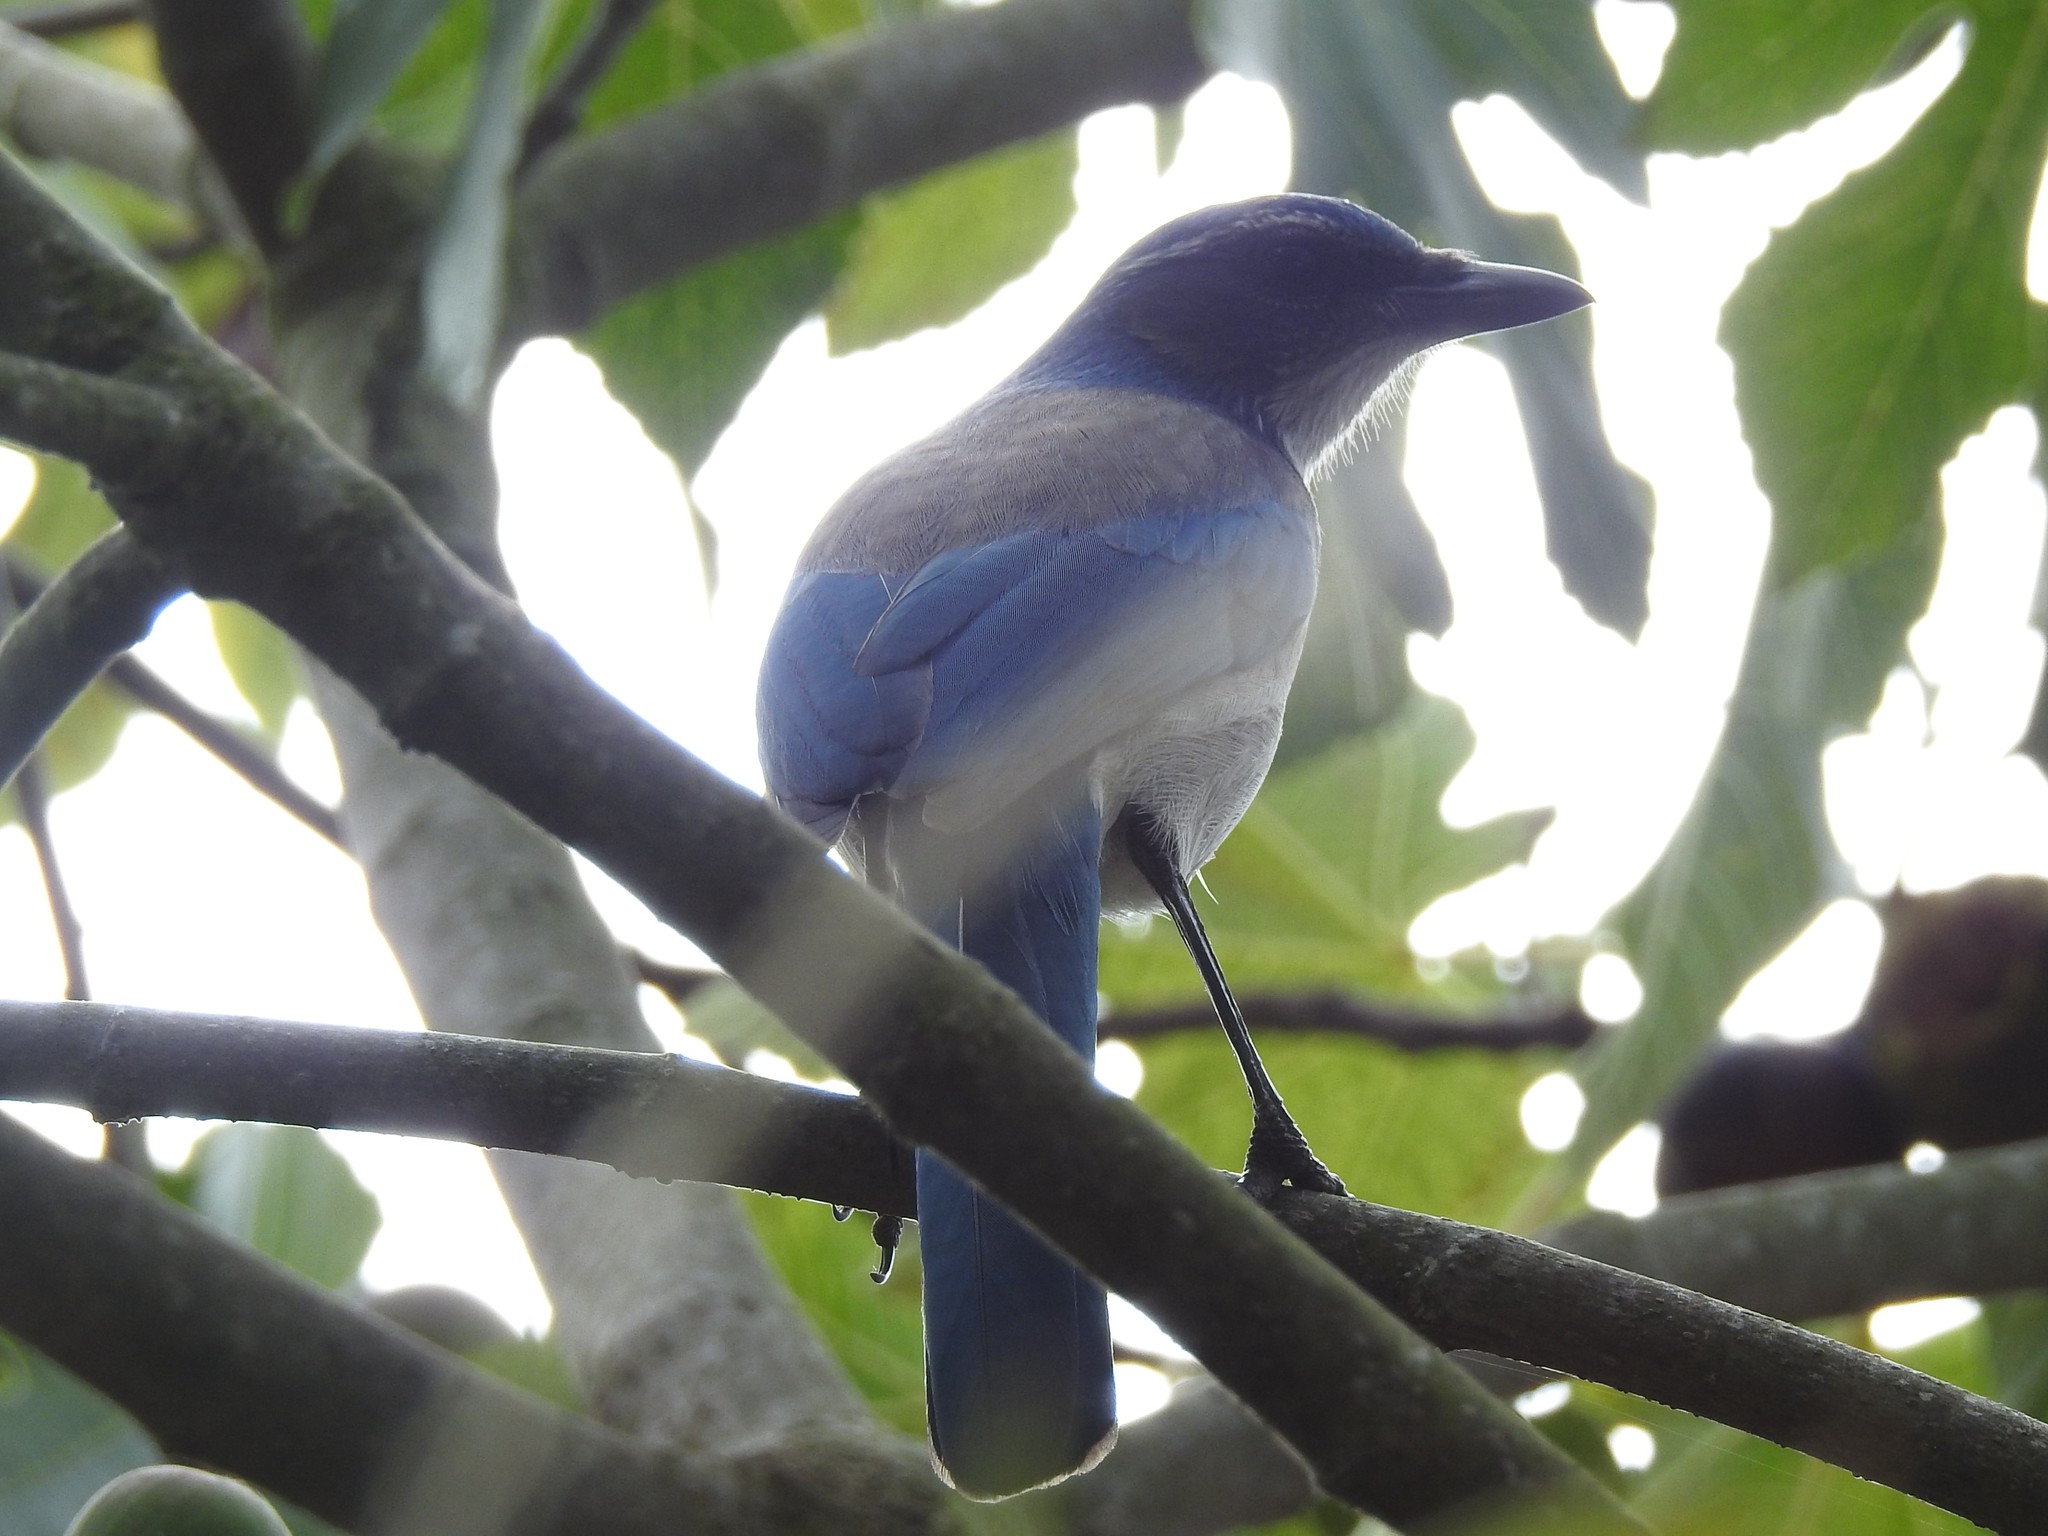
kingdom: Animalia
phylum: Chordata
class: Aves
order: Passeriformes
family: Corvidae
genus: Aphelocoma
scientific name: Aphelocoma californica
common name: California scrub-jay
